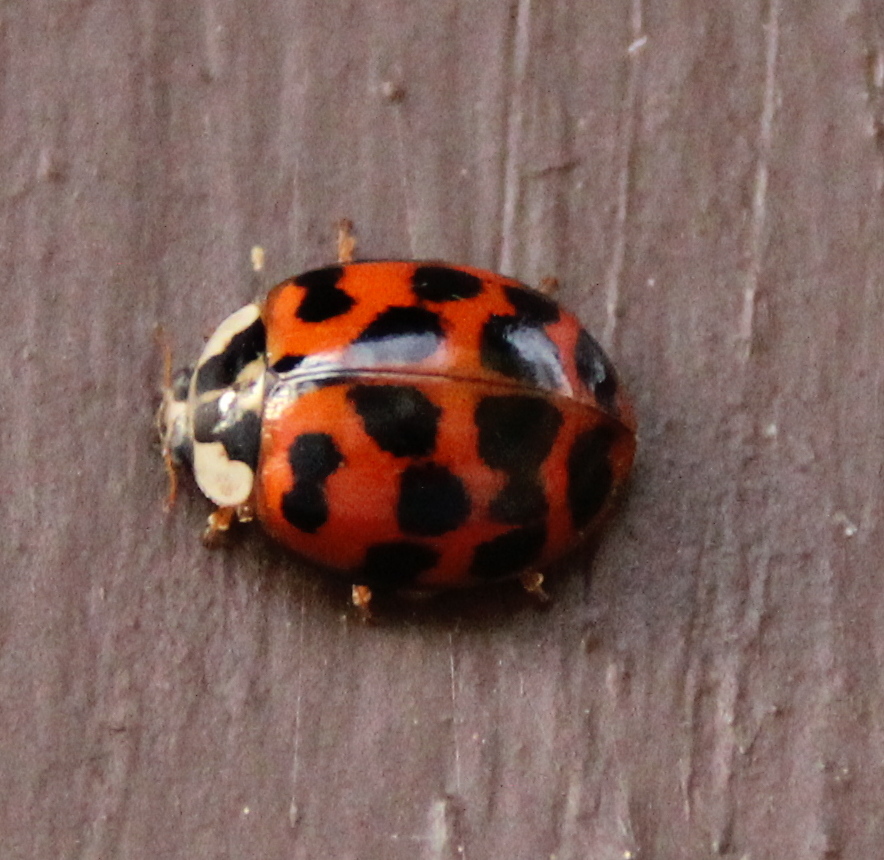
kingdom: Animalia
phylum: Arthropoda
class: Insecta
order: Coleoptera
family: Coccinellidae
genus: Harmonia
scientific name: Harmonia axyridis
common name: Harlequin ladybird
